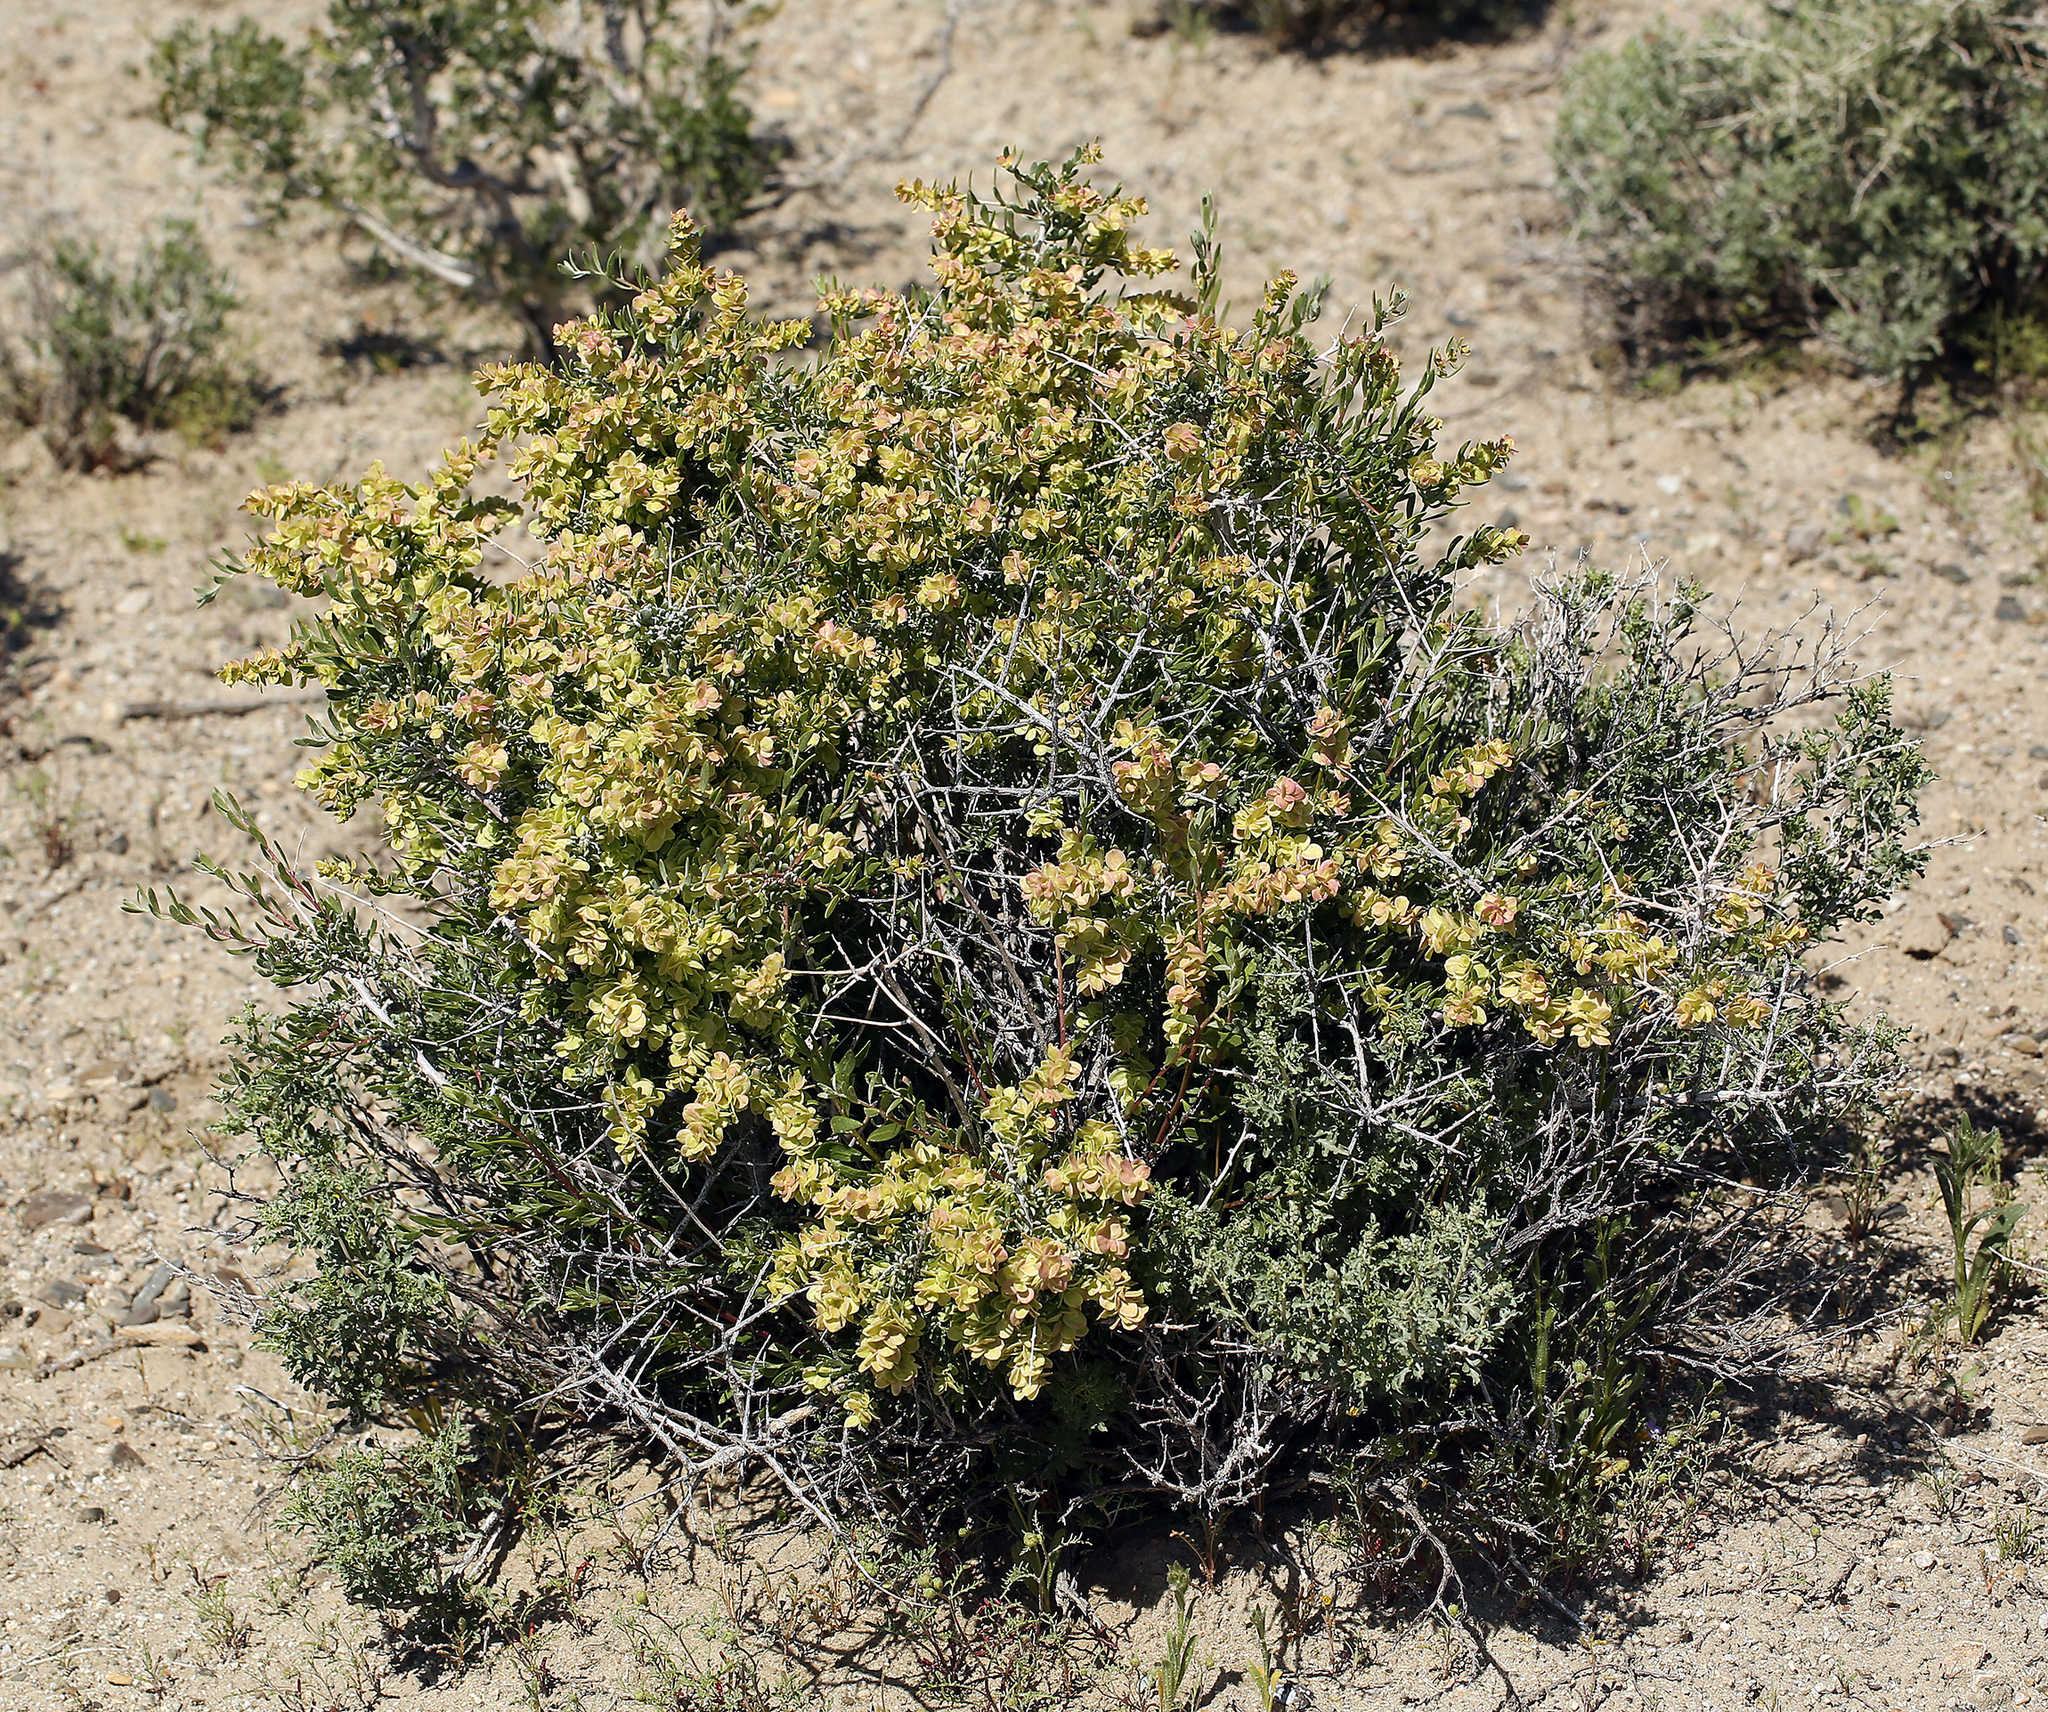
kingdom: Plantae
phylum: Tracheophyta
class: Magnoliopsida
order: Caryophyllales
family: Amaranthaceae
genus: Grayia
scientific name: Grayia spinosa
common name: Spiny hopsage
